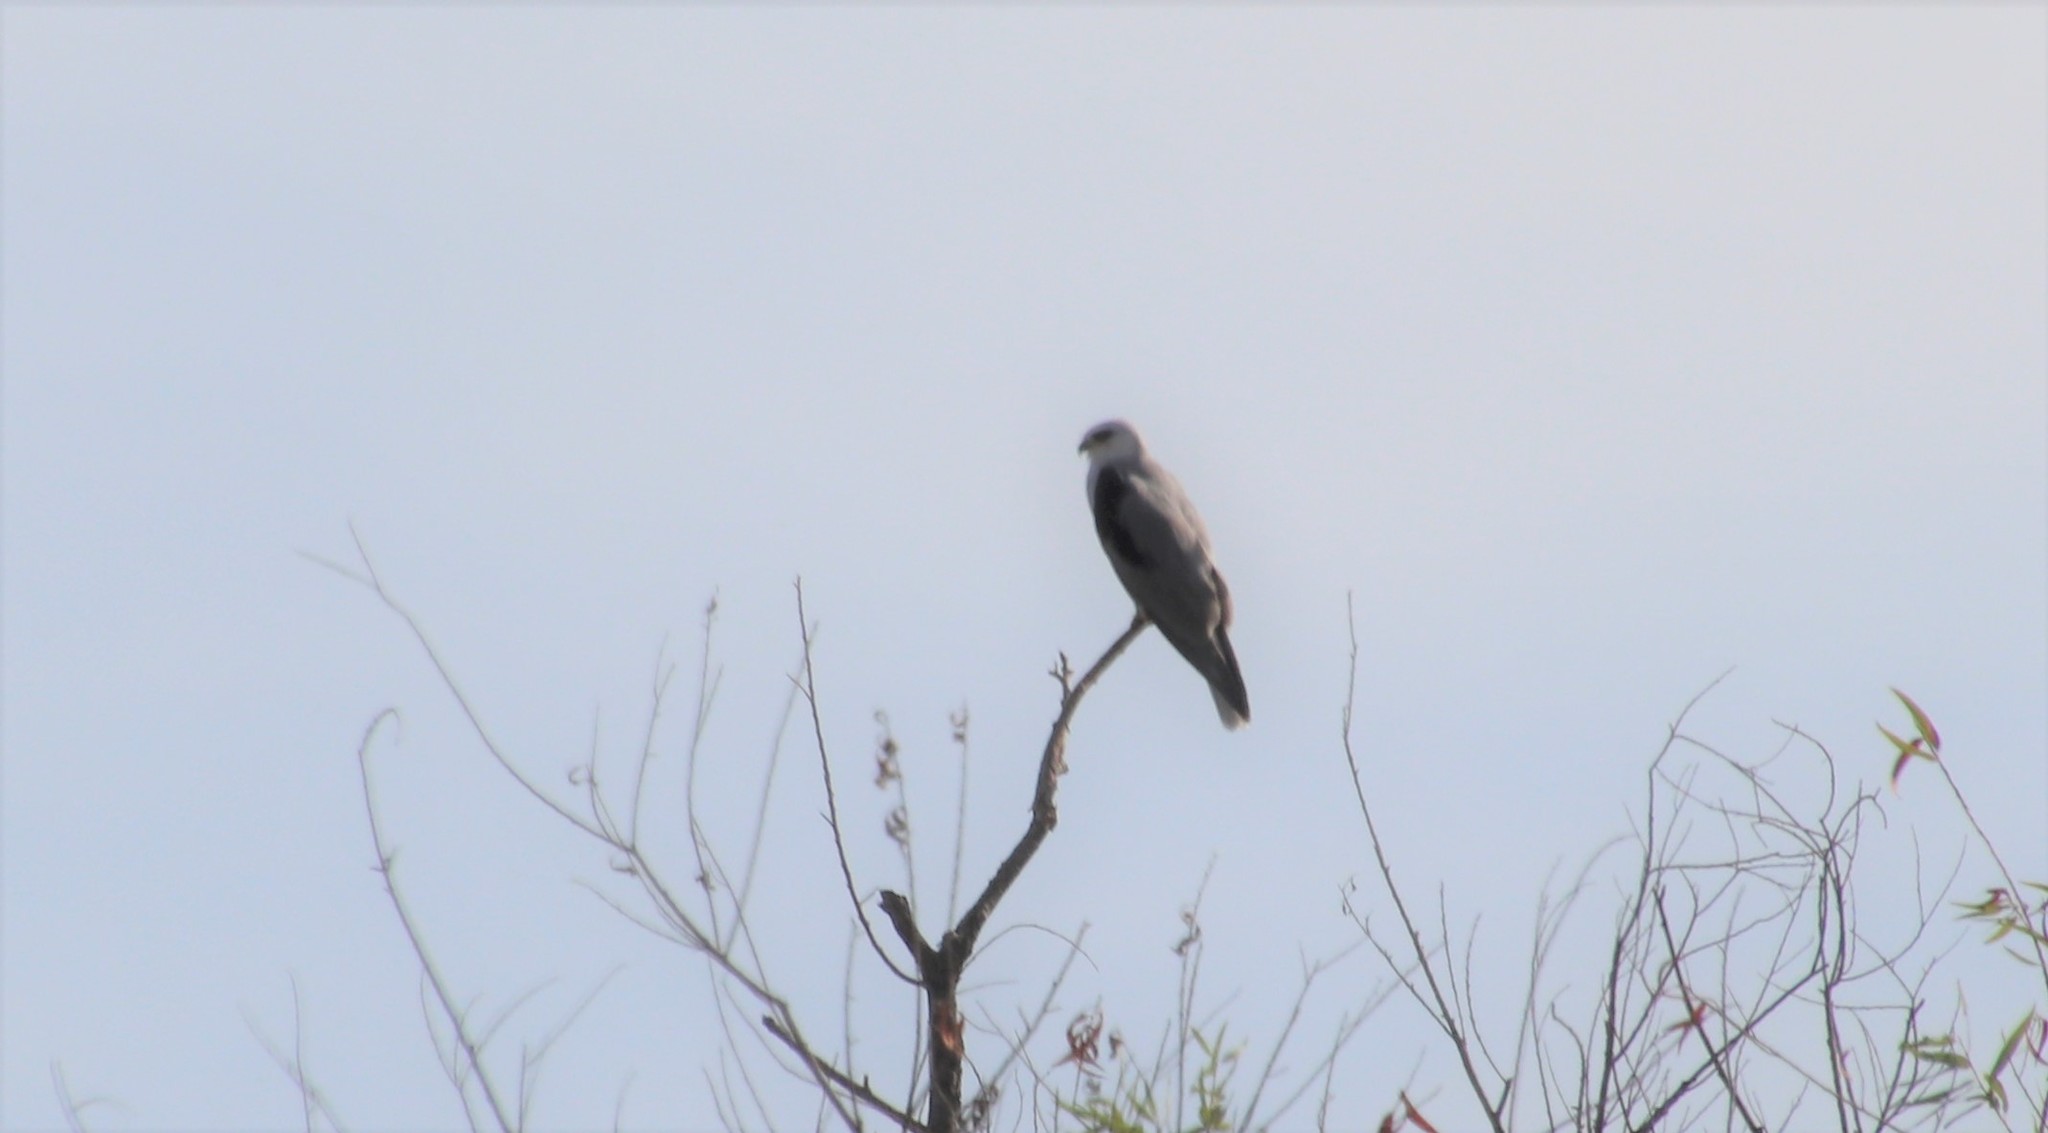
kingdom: Animalia
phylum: Chordata
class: Aves
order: Accipitriformes
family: Accipitridae
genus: Elanus
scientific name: Elanus leucurus
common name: White-tailed kite
